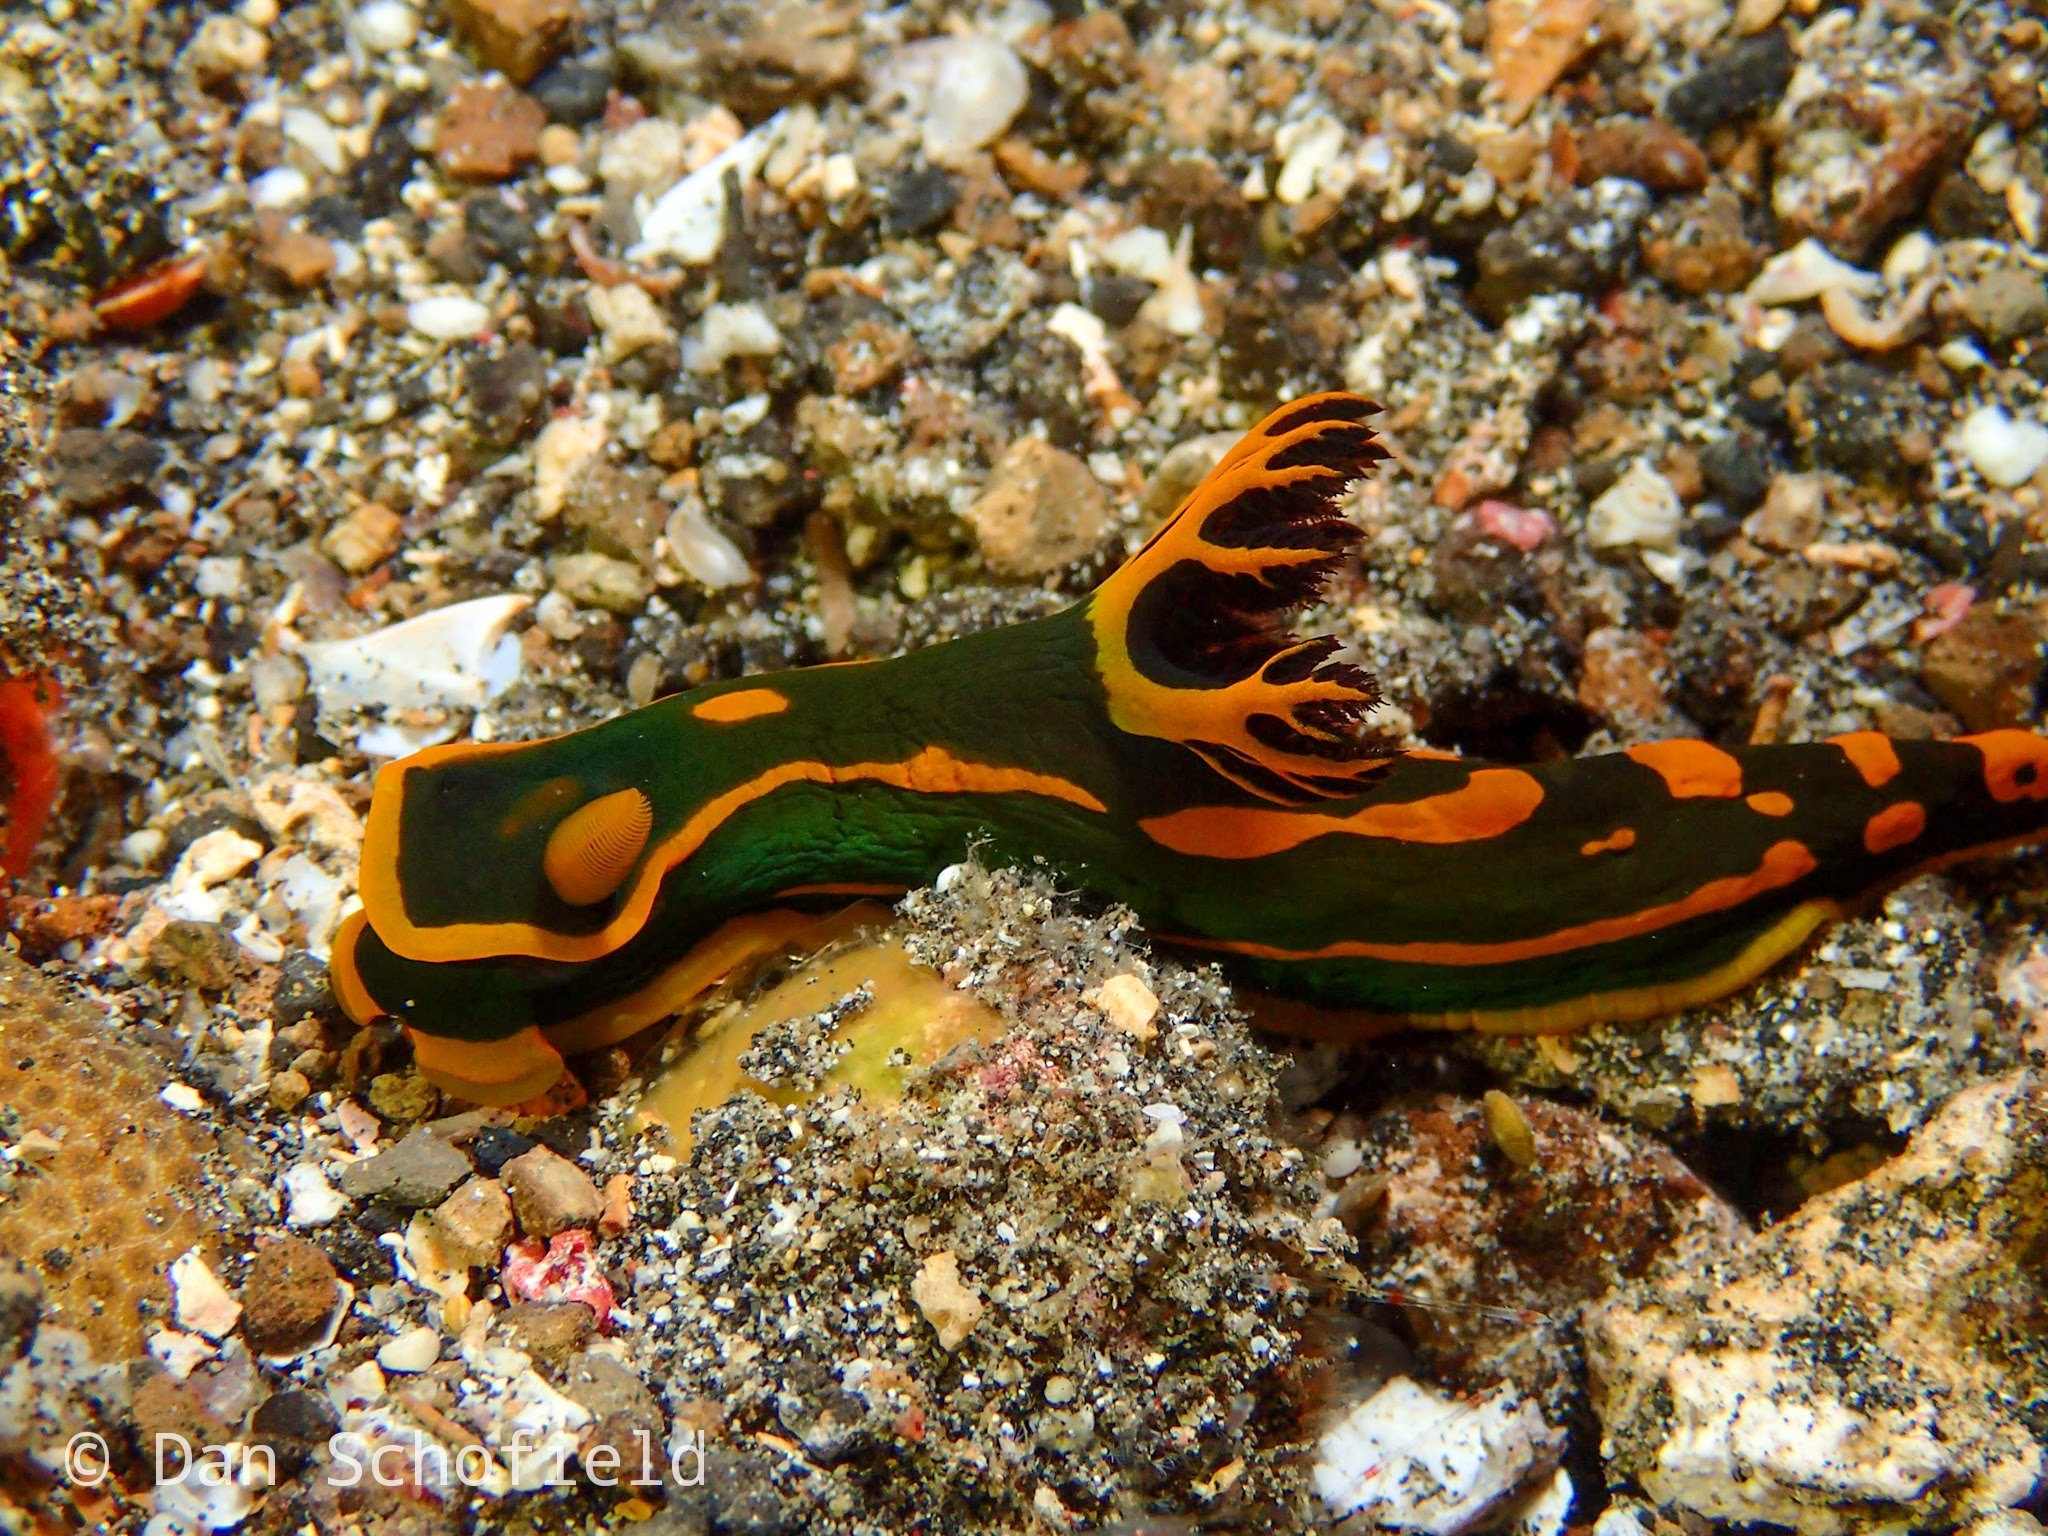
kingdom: Animalia
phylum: Mollusca
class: Gastropoda
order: Nudibranchia
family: Polyceridae
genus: Tambja
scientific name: Tambja gabrielae
